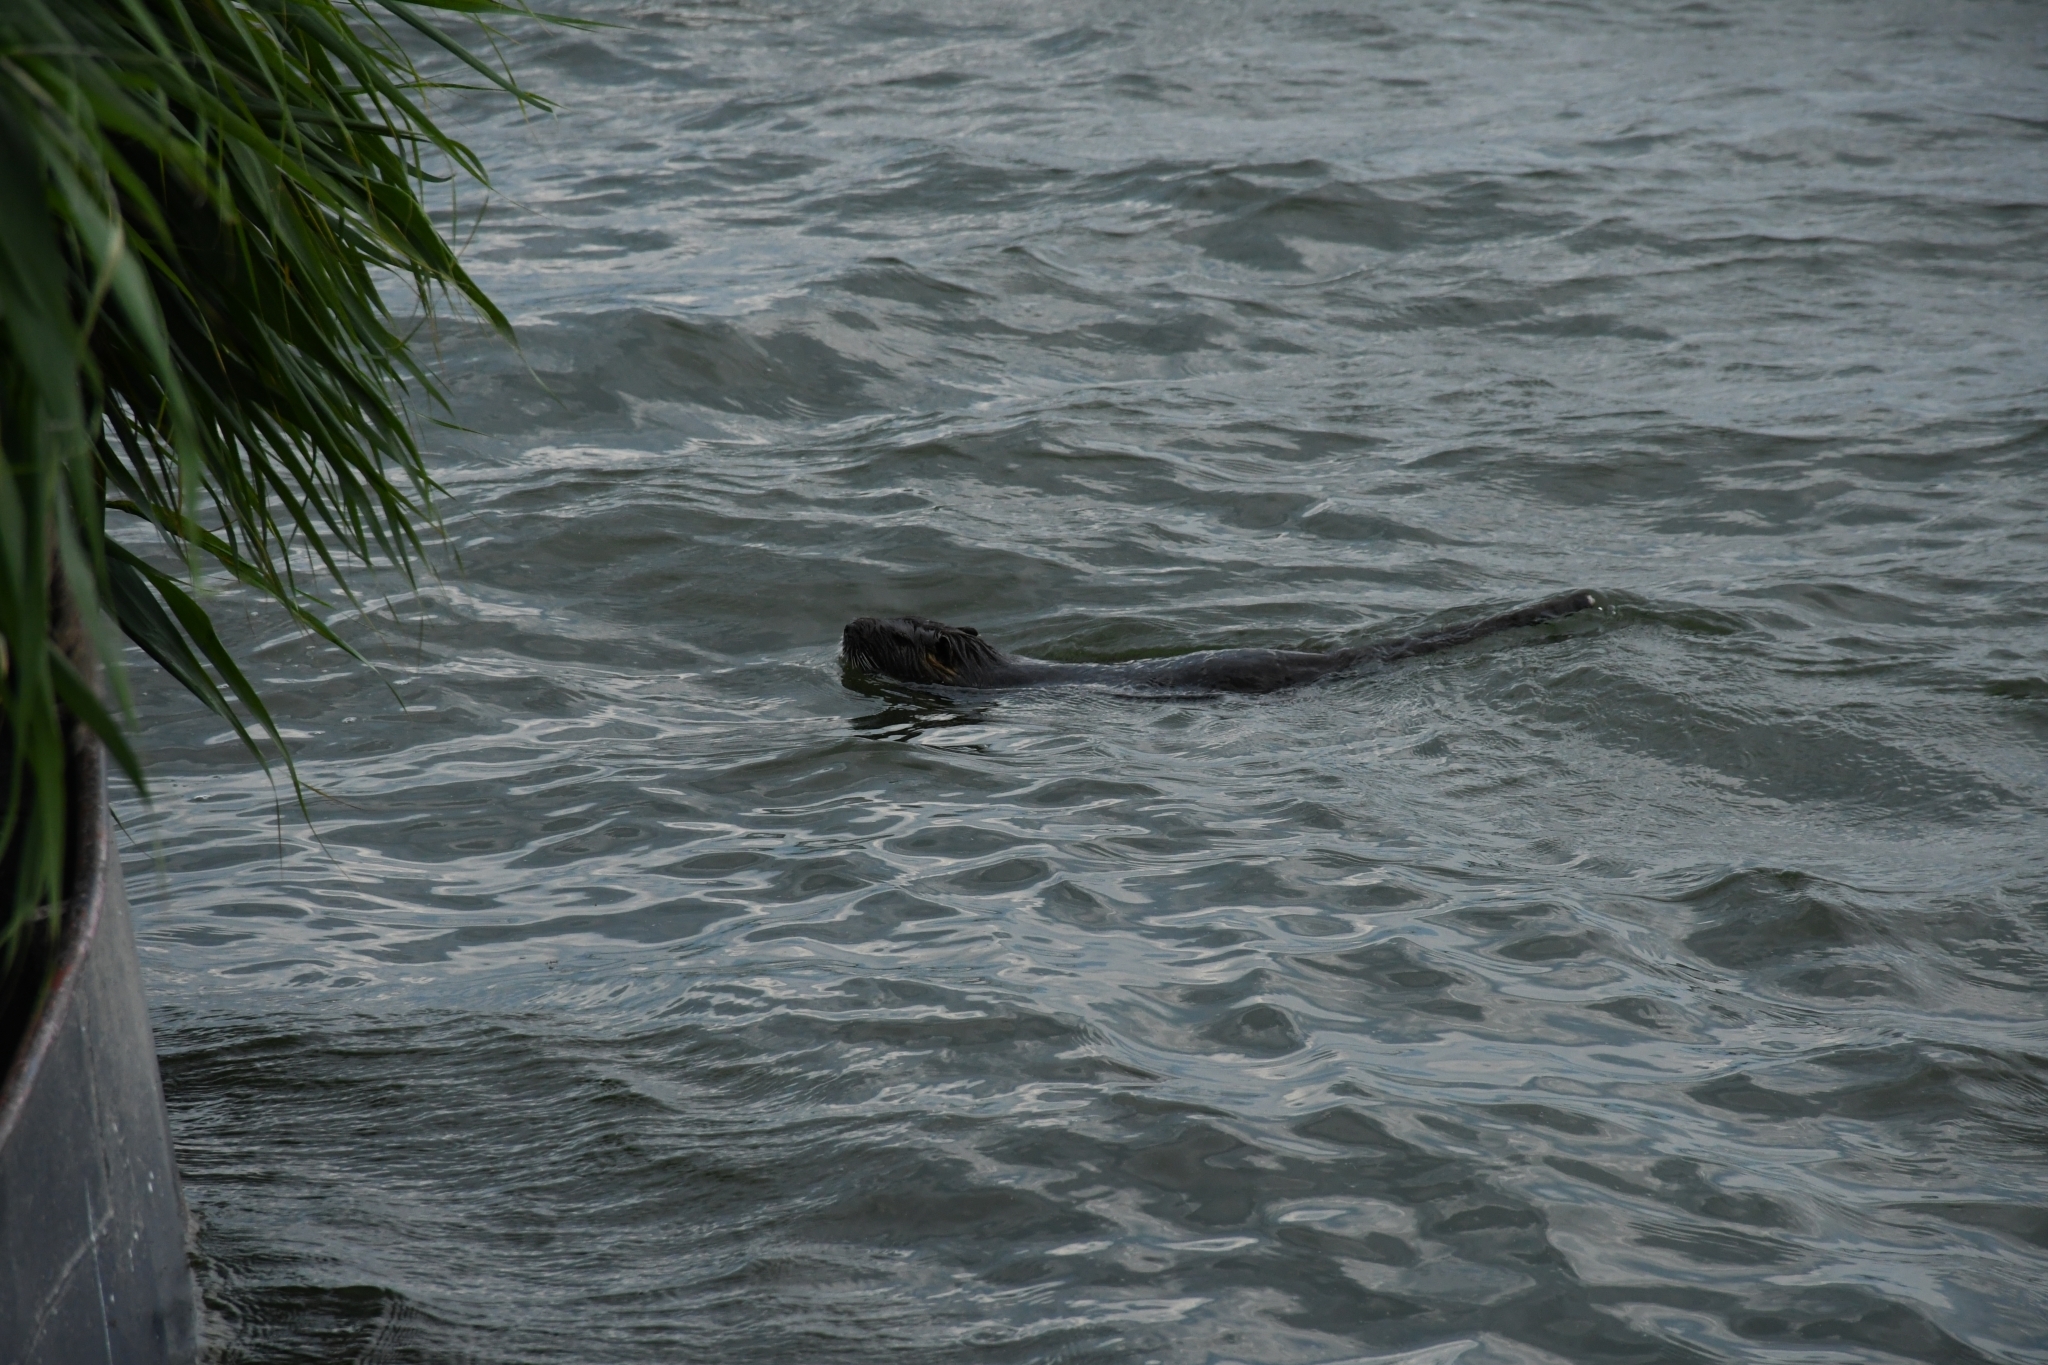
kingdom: Animalia
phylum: Chordata
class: Mammalia
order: Rodentia
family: Myocastoridae
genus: Myocastor
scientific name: Myocastor coypus
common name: Coypu
